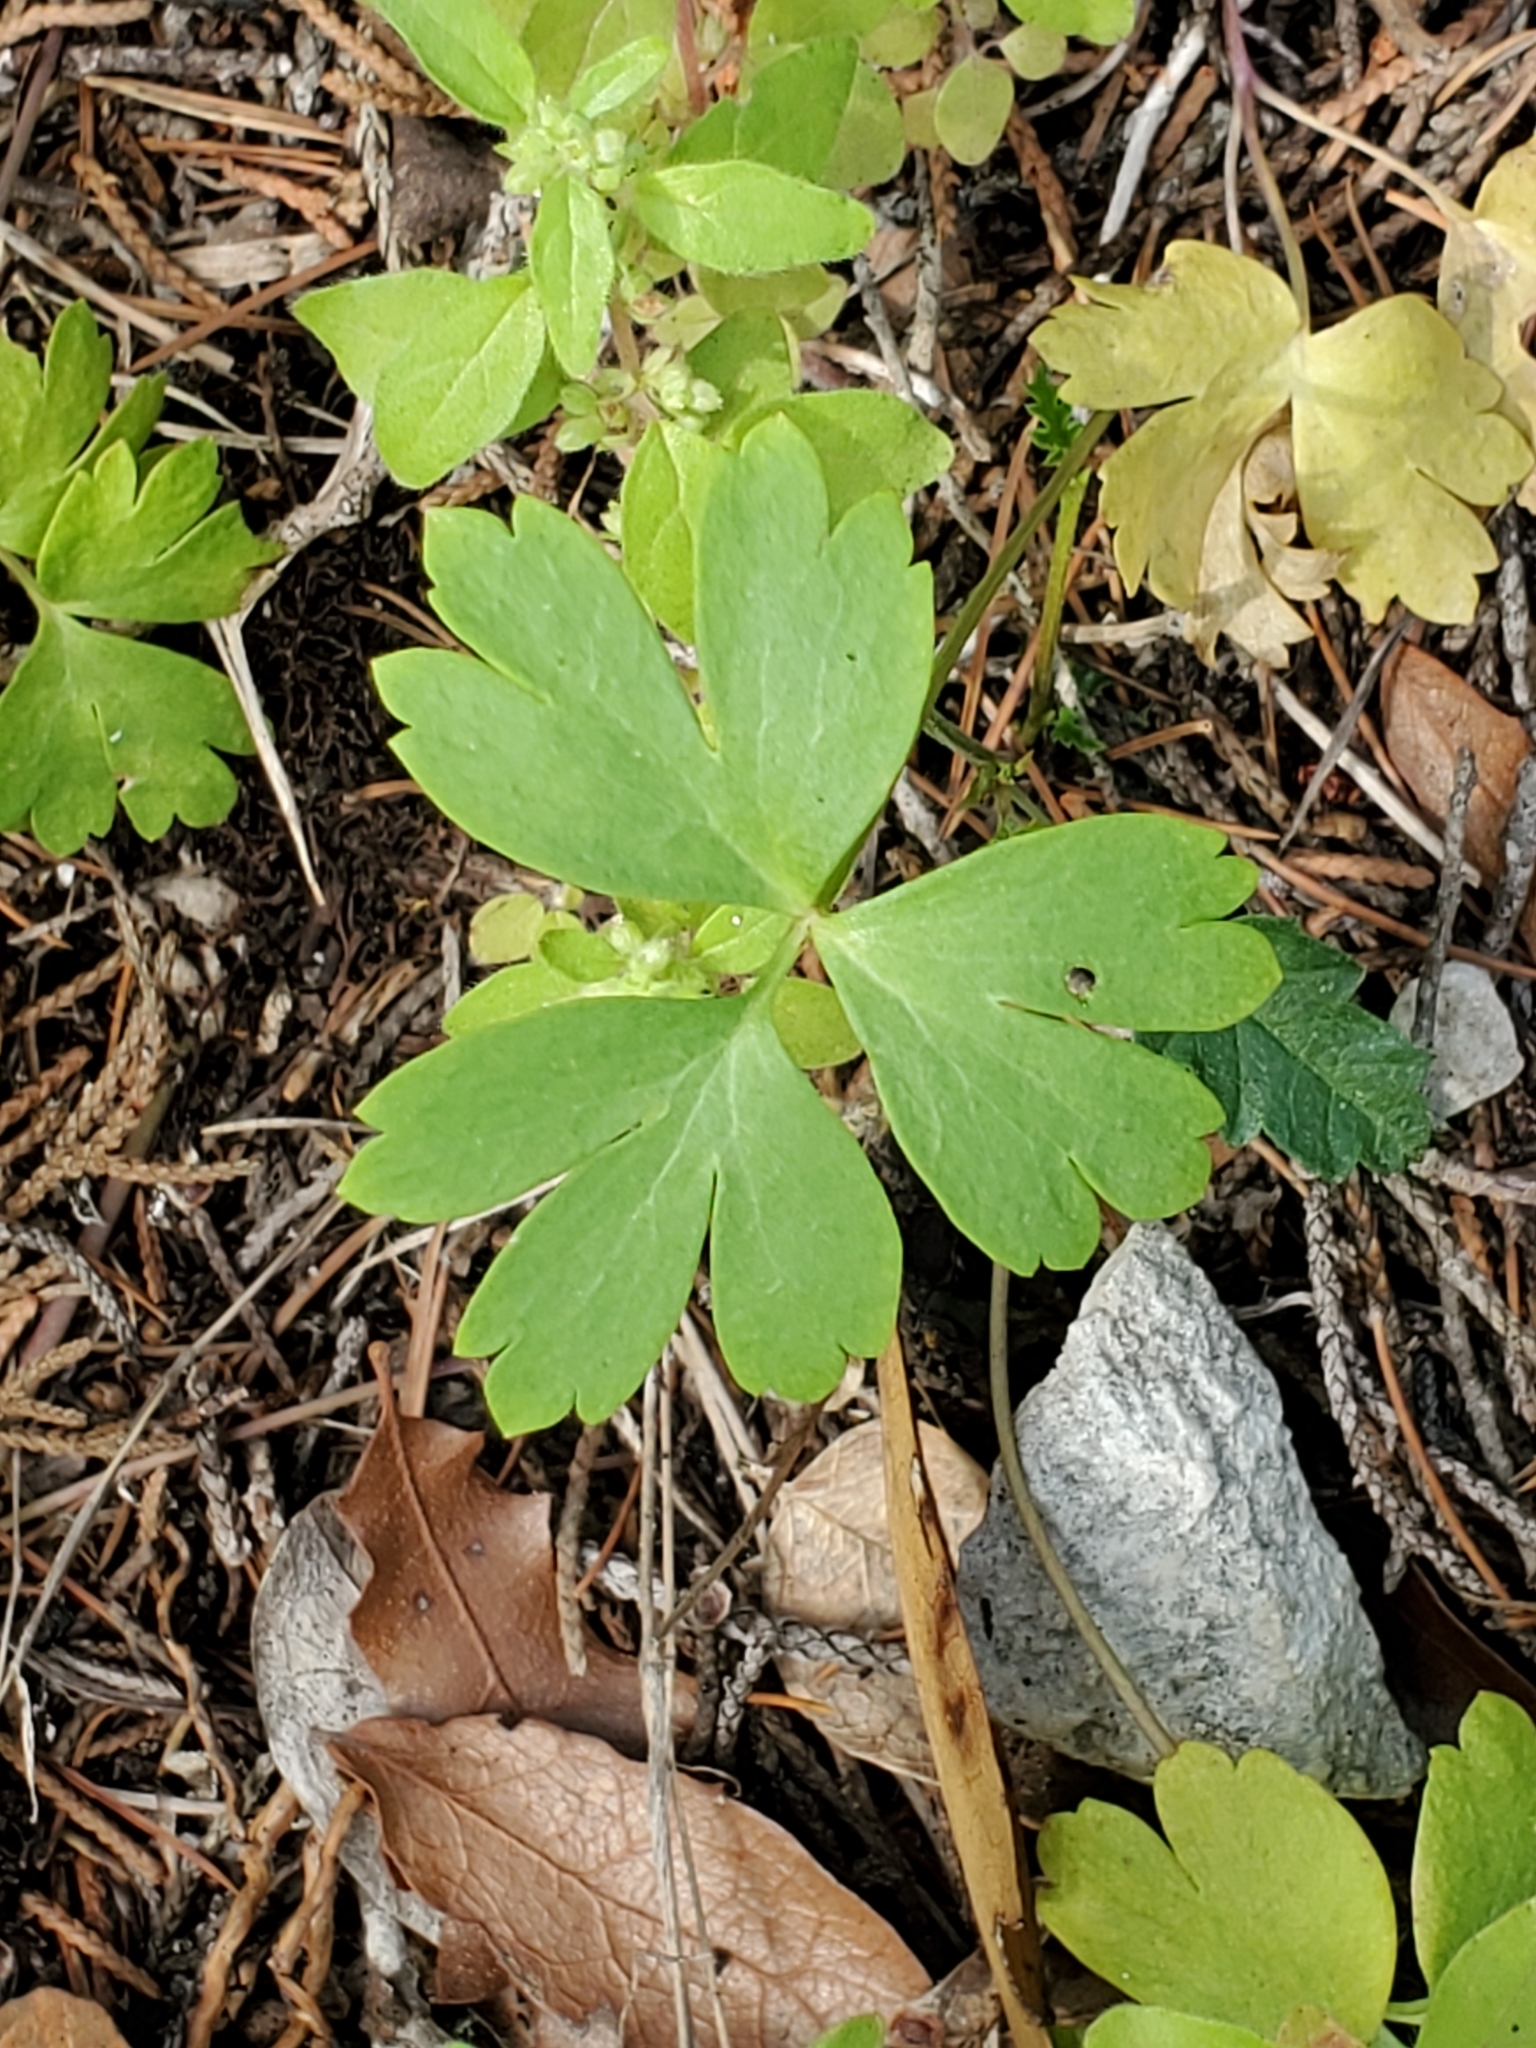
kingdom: Plantae
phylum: Tracheophyta
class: Magnoliopsida
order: Ranunculales
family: Ranunculaceae
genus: Anemone
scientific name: Anemone edwardsiana
